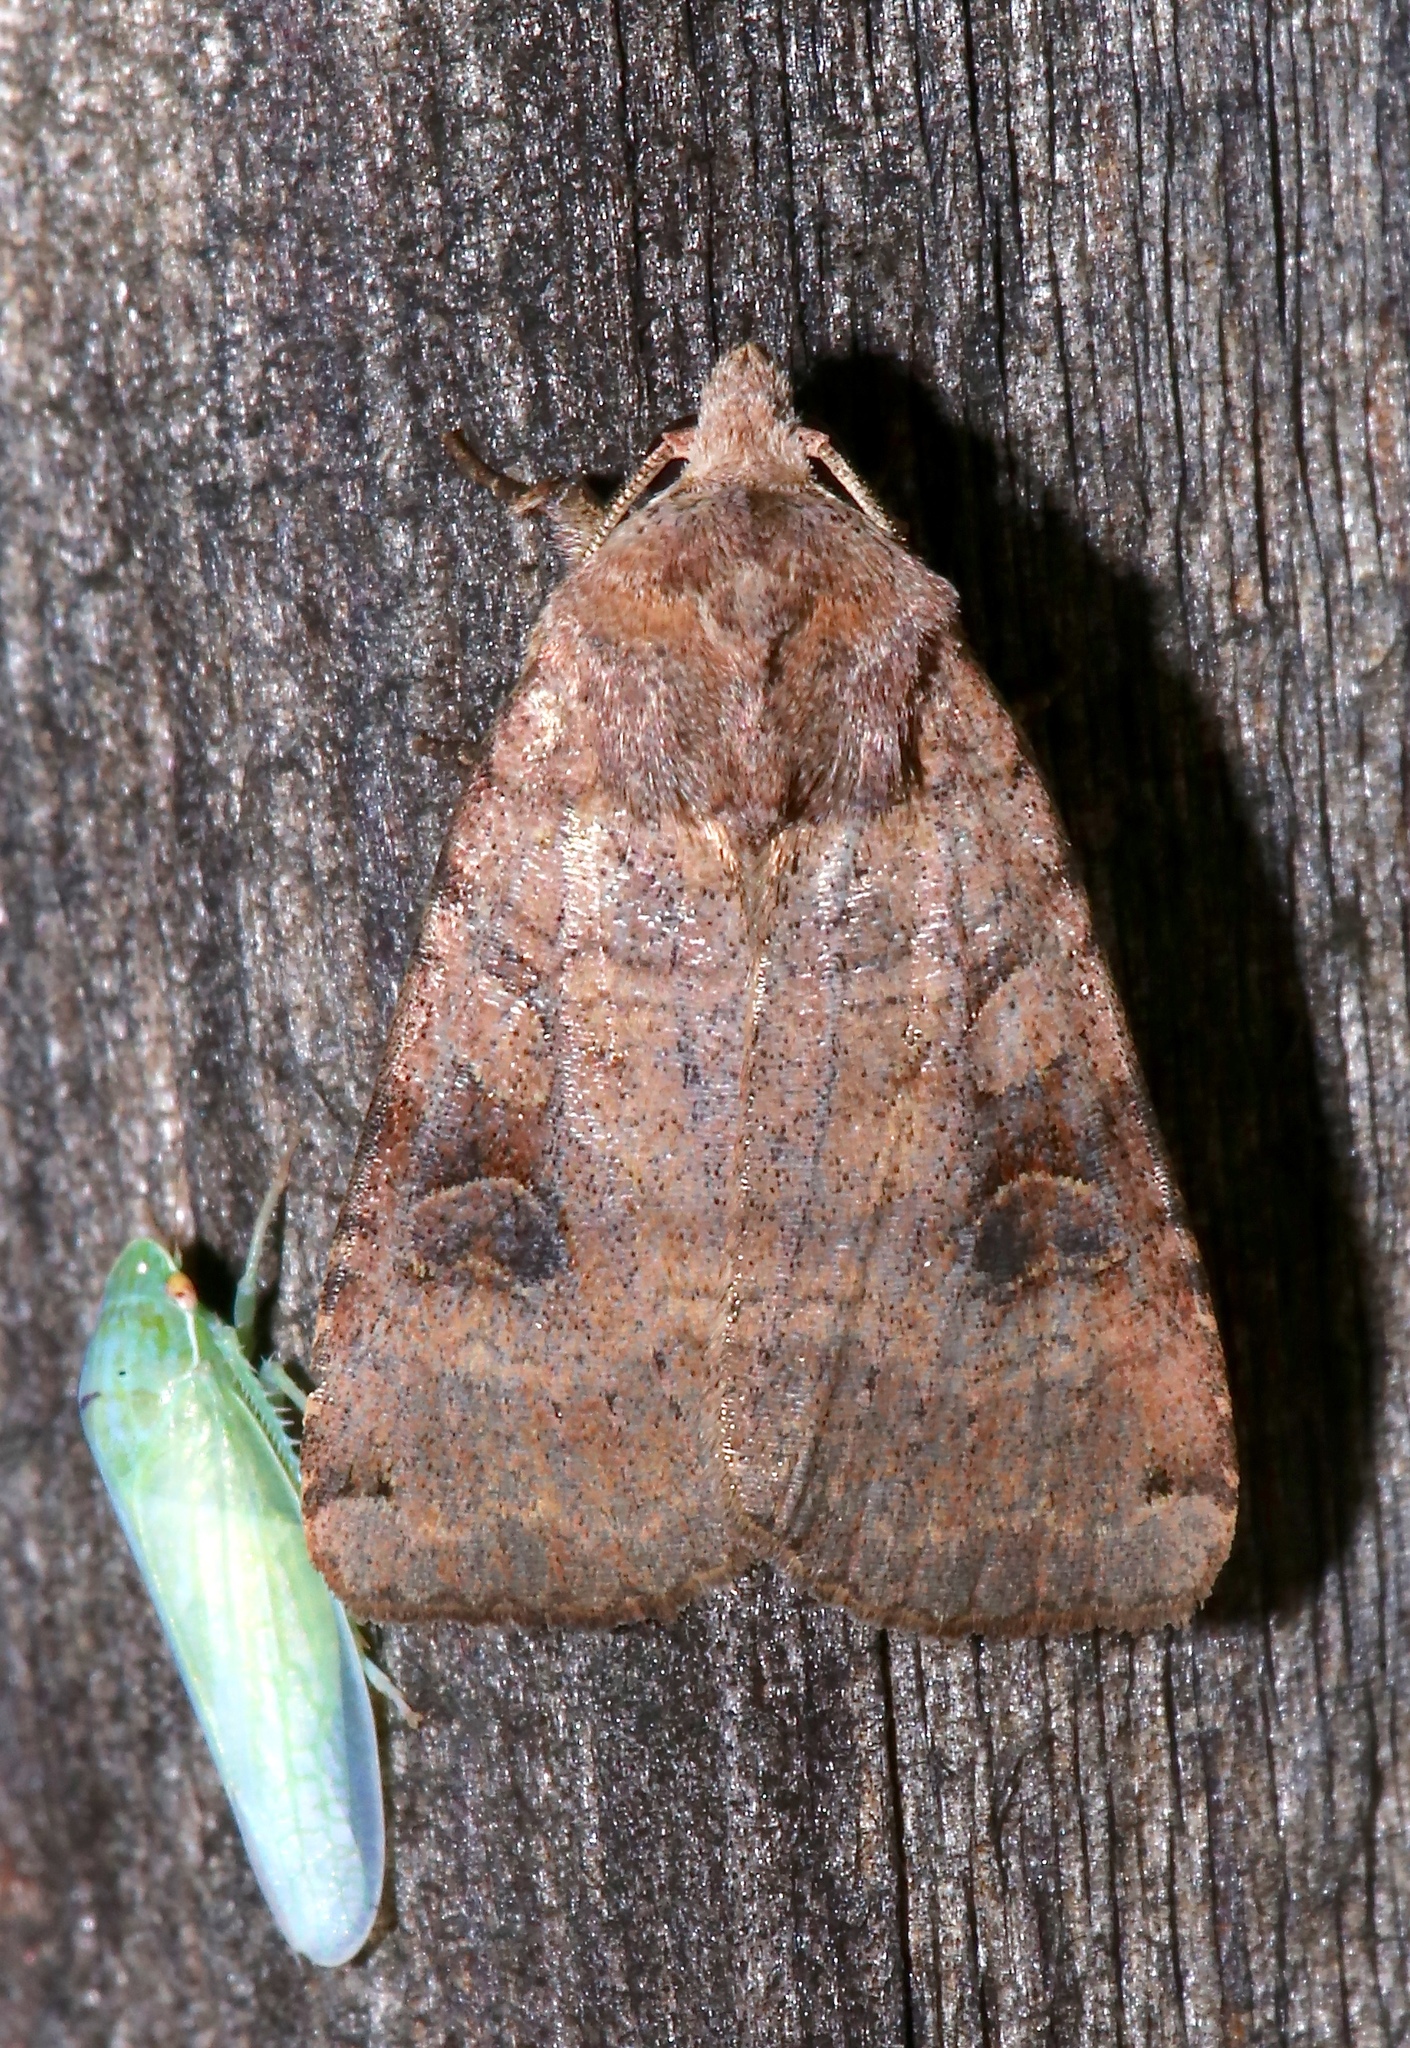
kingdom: Animalia
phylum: Arthropoda
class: Insecta
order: Lepidoptera
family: Noctuidae
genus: Xestia
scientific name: Xestia smithii
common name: Smith's dart
